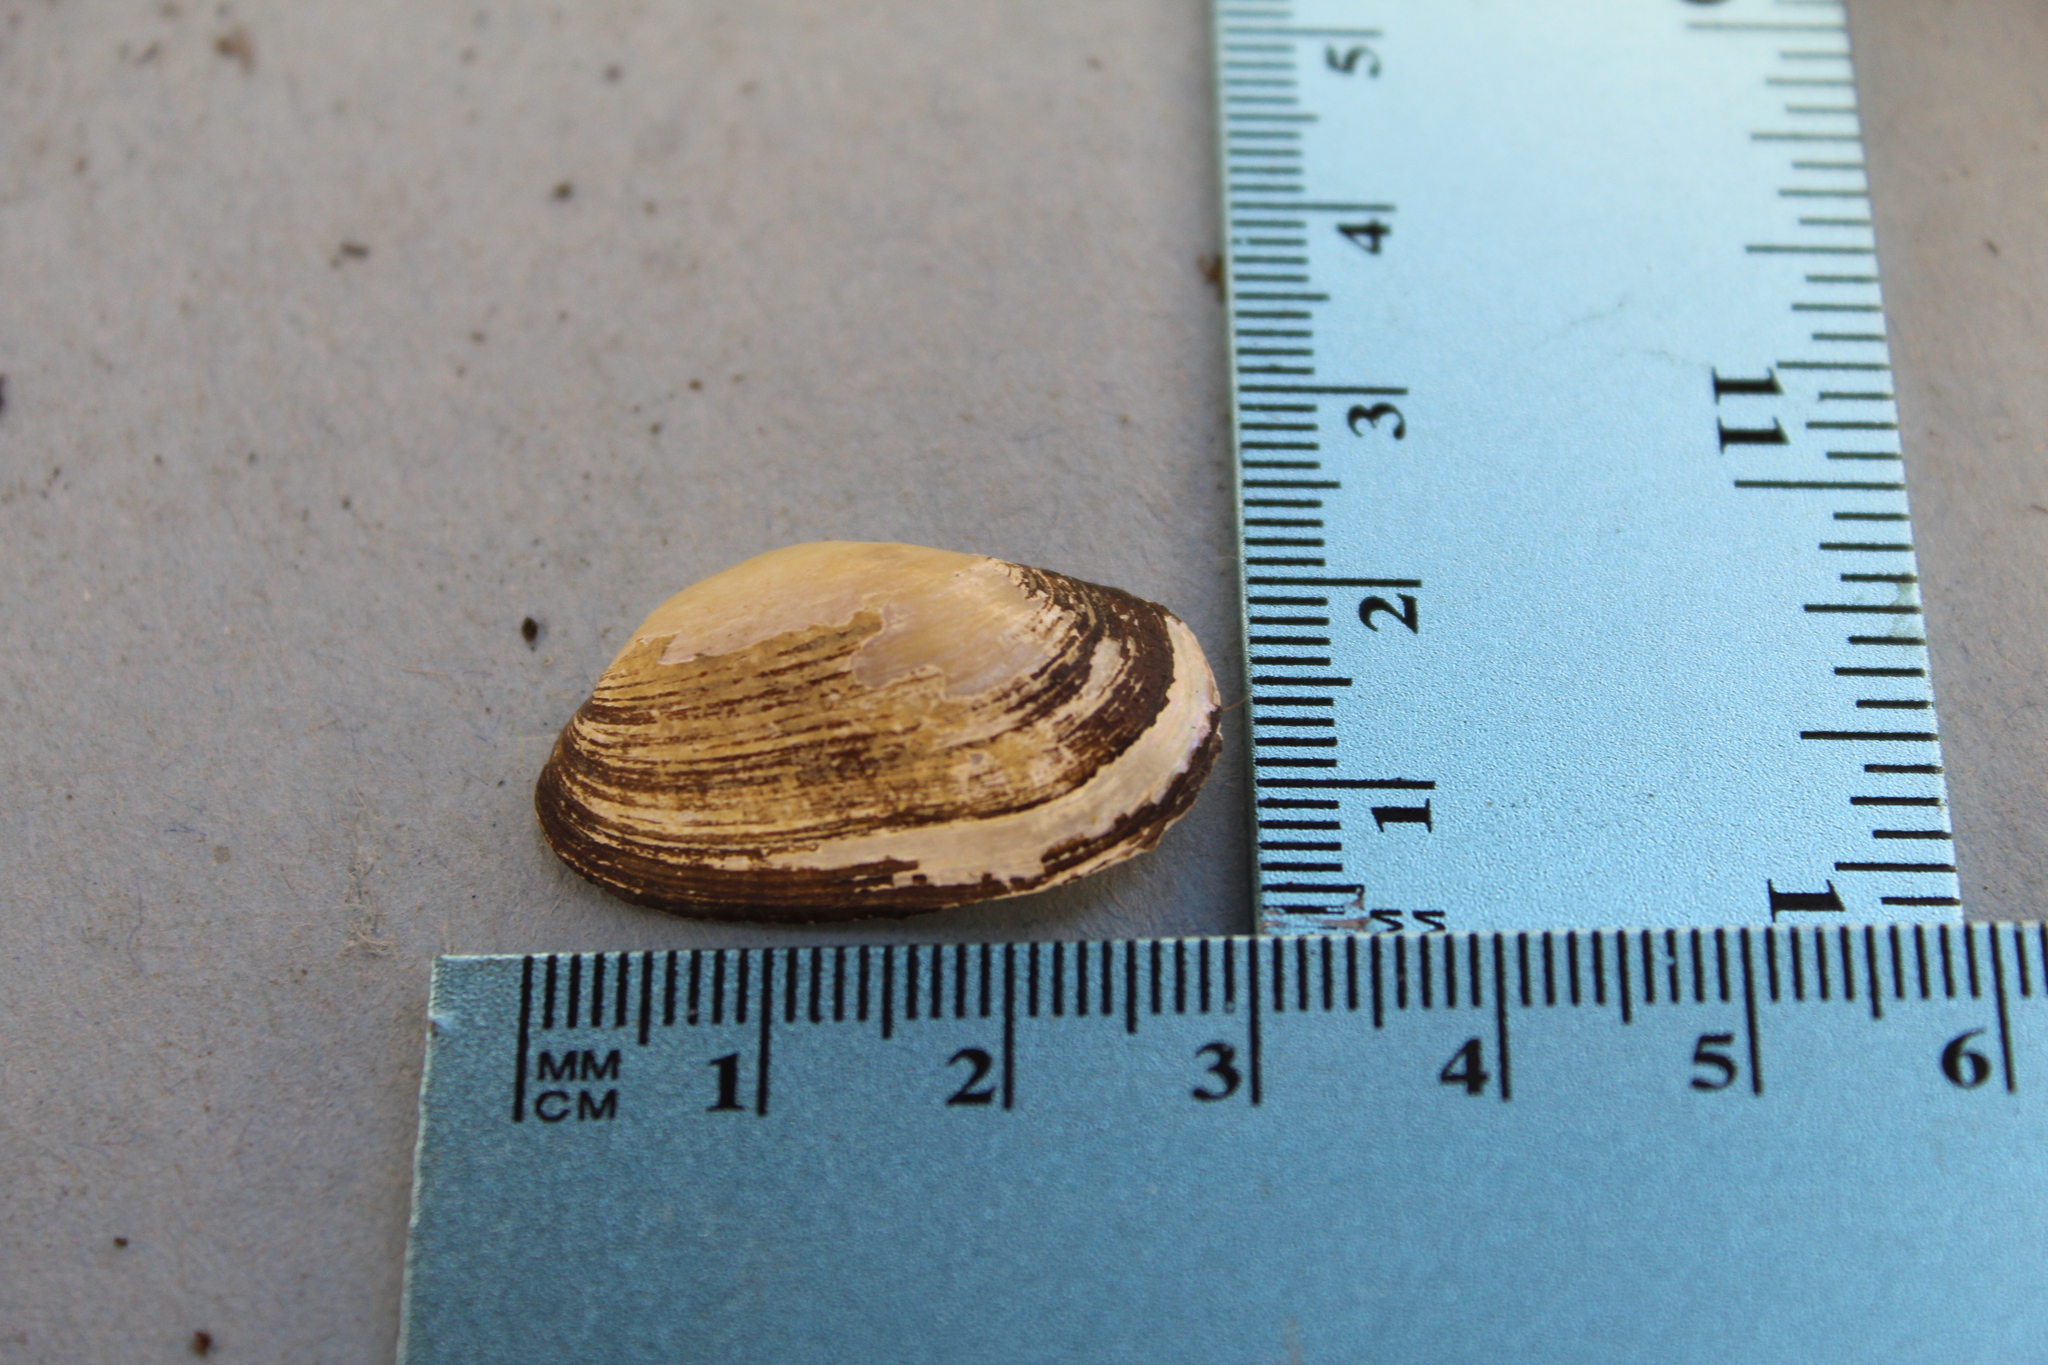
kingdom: Animalia
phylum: Mollusca
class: Bivalvia
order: Unionida
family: Unionidae
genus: Toxolasma
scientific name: Toxolasma parvum
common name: Lilliput
